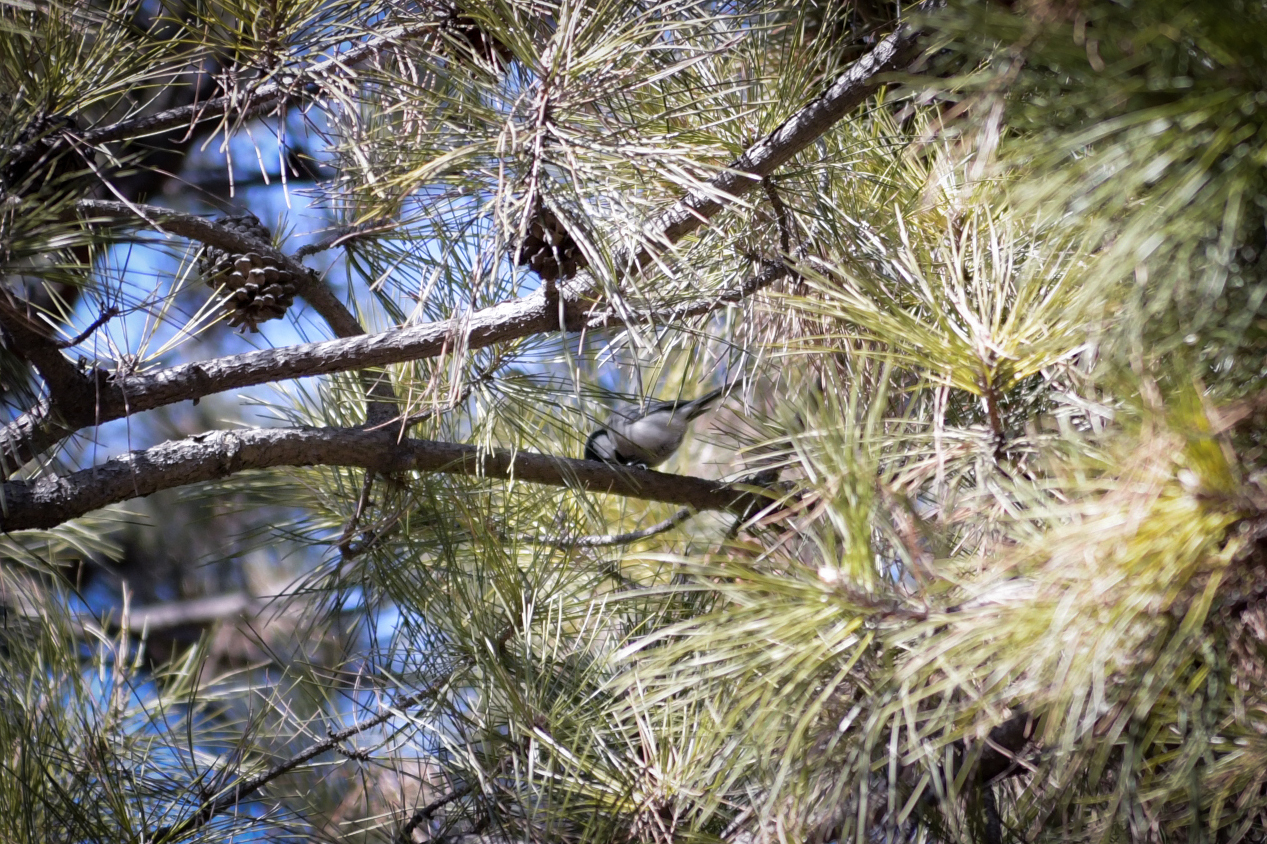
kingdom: Animalia
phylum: Chordata
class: Aves
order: Passeriformes
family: Paridae
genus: Parus
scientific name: Parus minor
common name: Japanese tit
